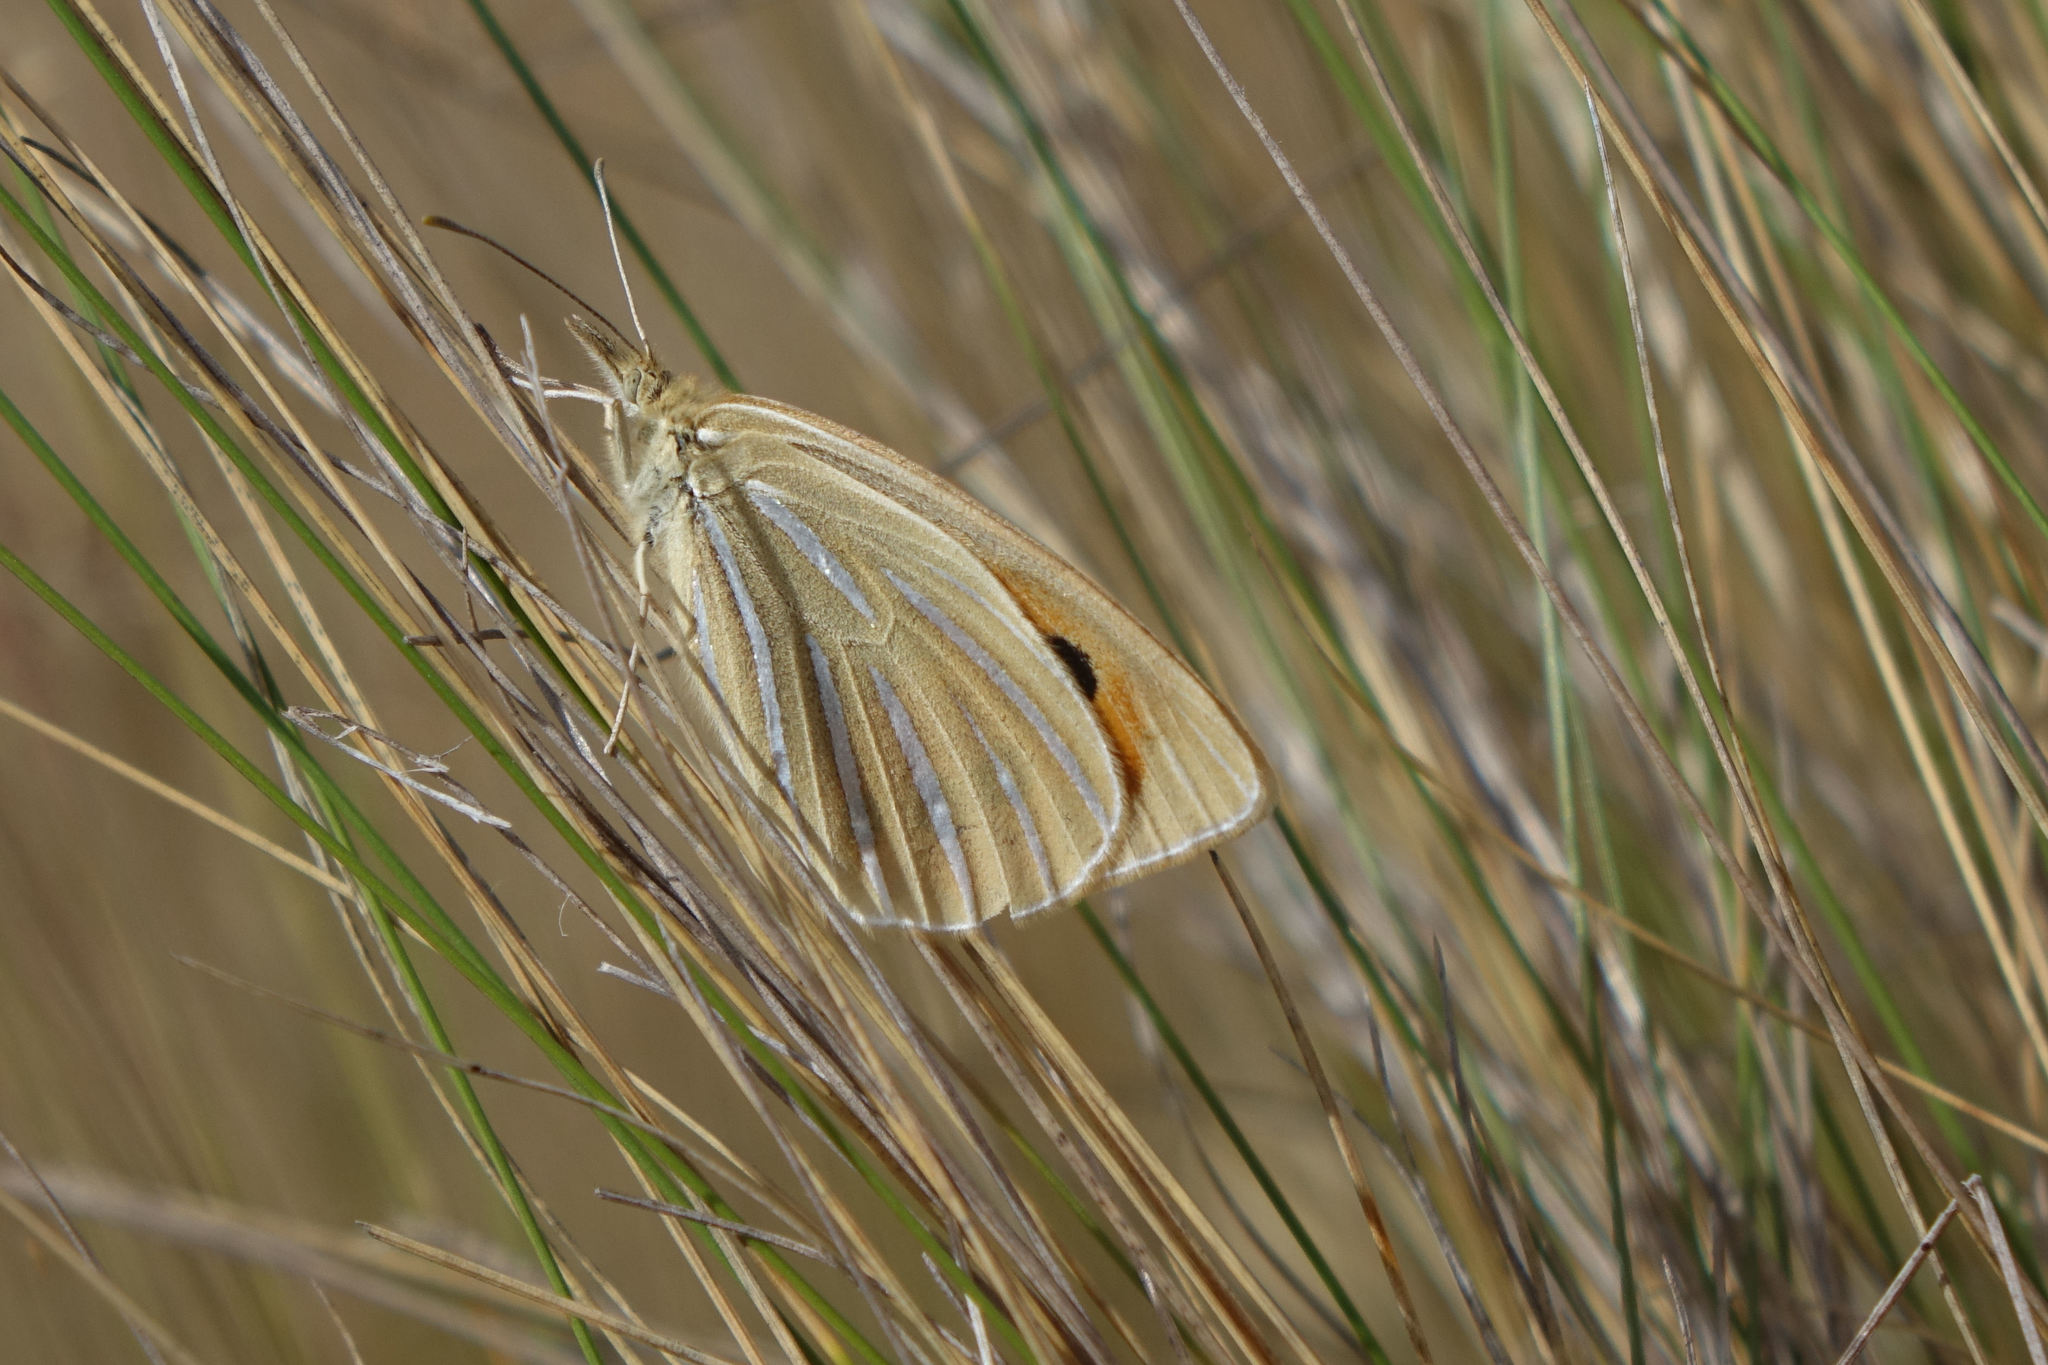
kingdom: Animalia
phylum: Arthropoda
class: Insecta
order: Lepidoptera
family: Nymphalidae
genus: Argyrophenga
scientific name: Argyrophenga antipodum
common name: Common tussock butterfly
